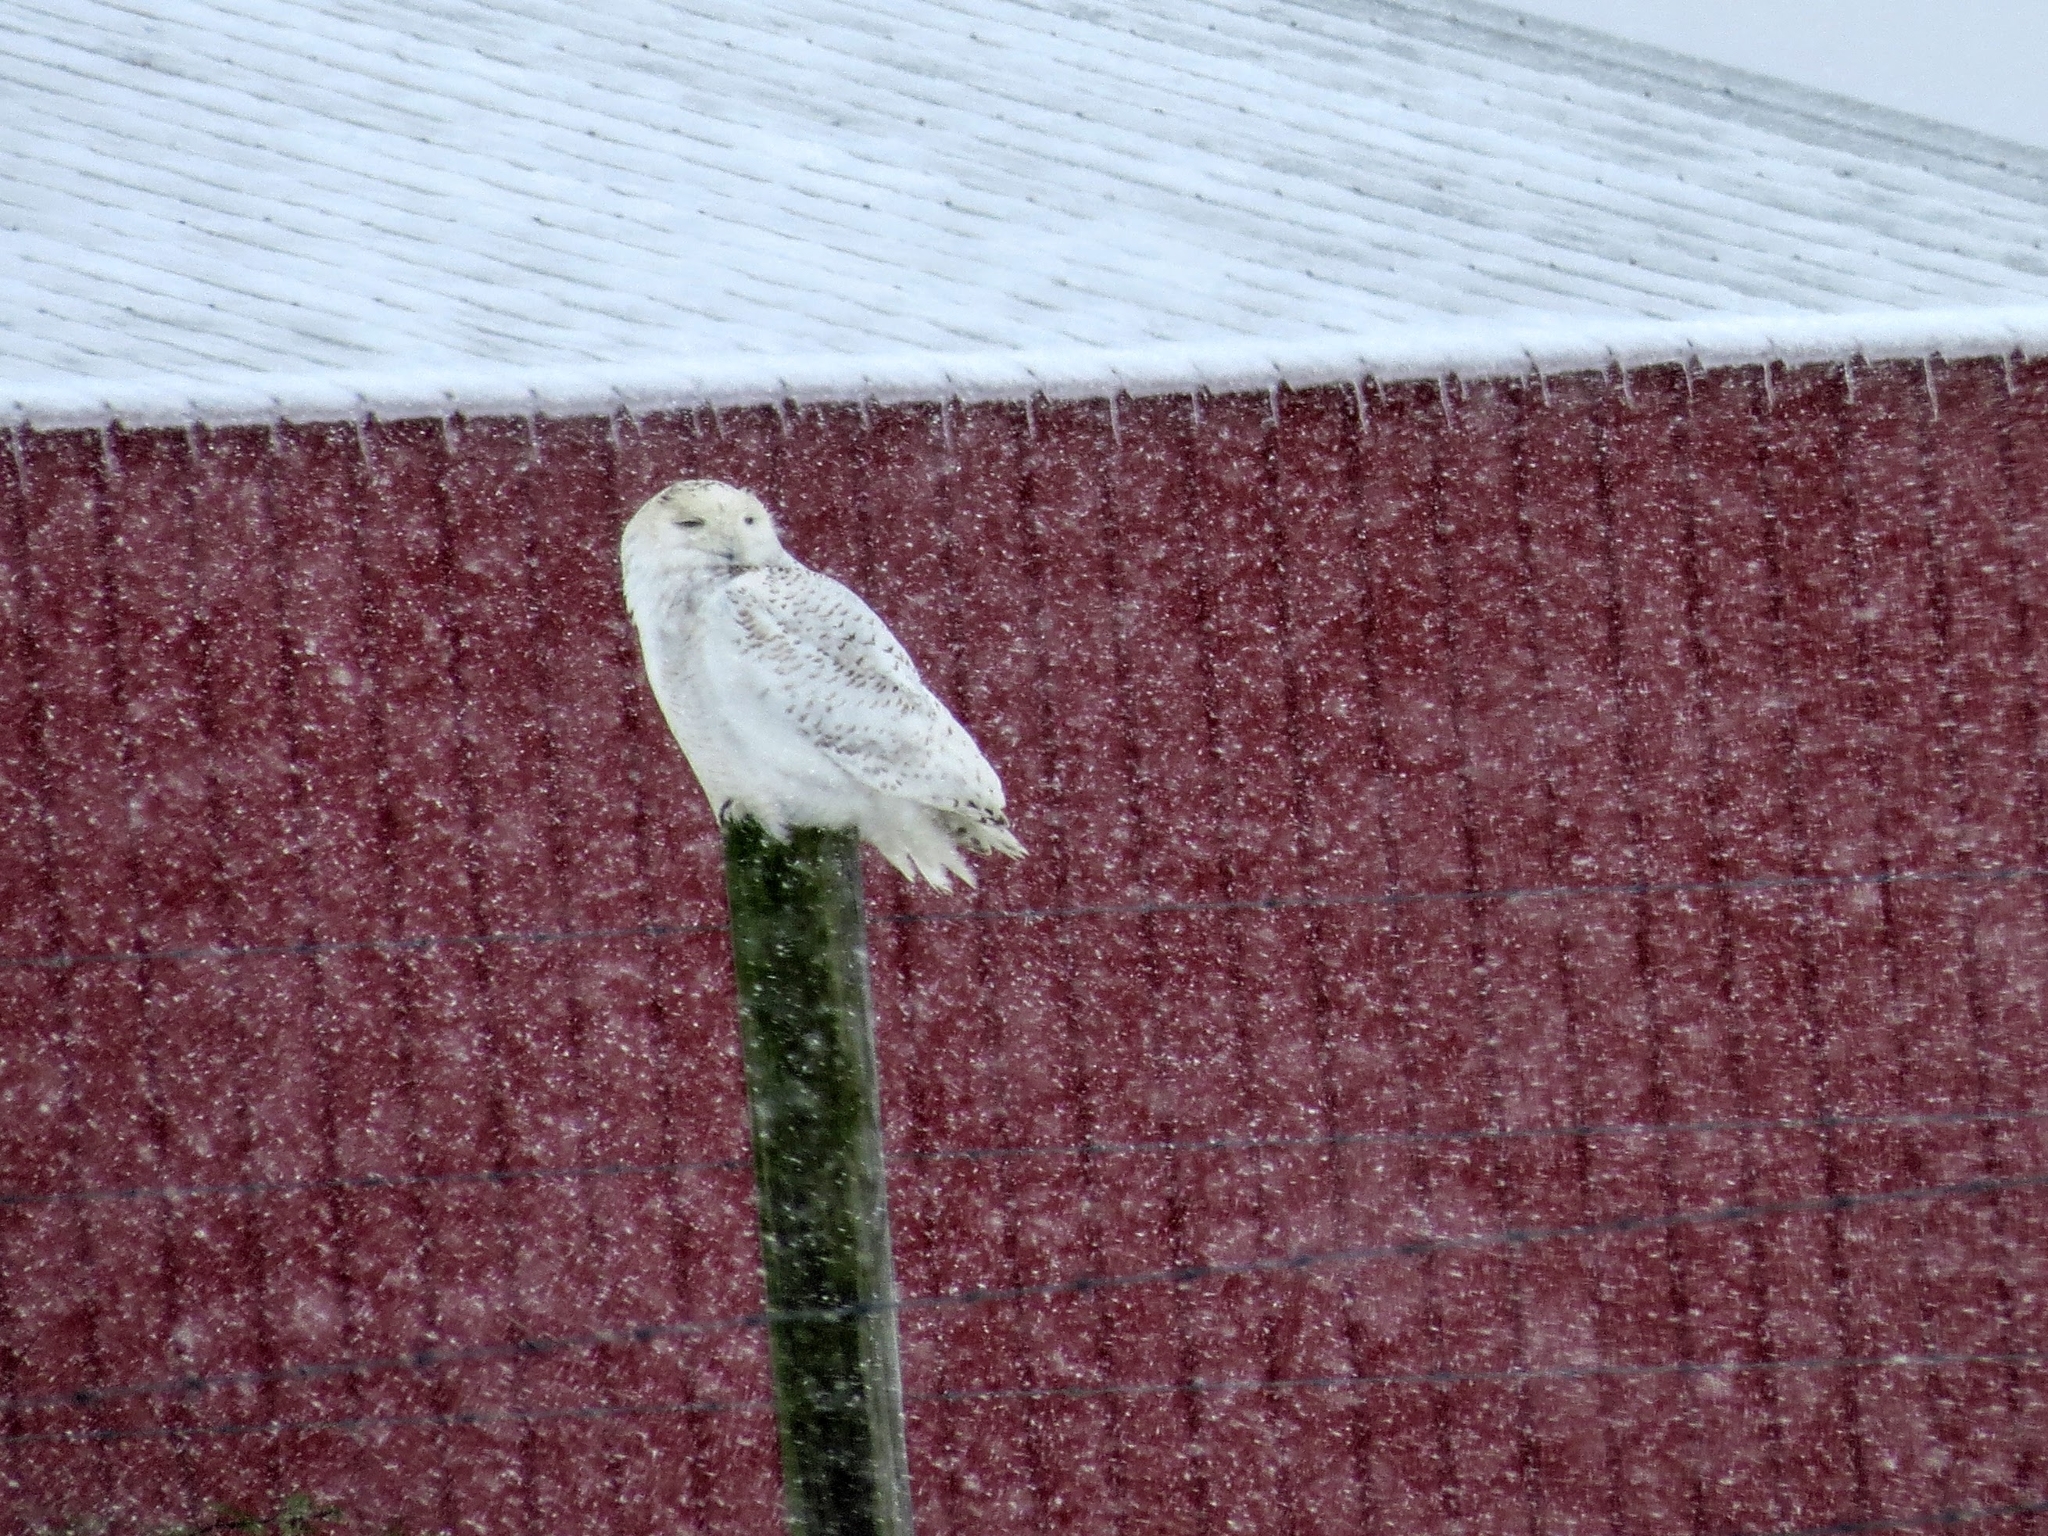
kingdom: Animalia
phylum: Chordata
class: Aves
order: Strigiformes
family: Strigidae
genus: Bubo
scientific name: Bubo scandiacus
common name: Snowy owl
